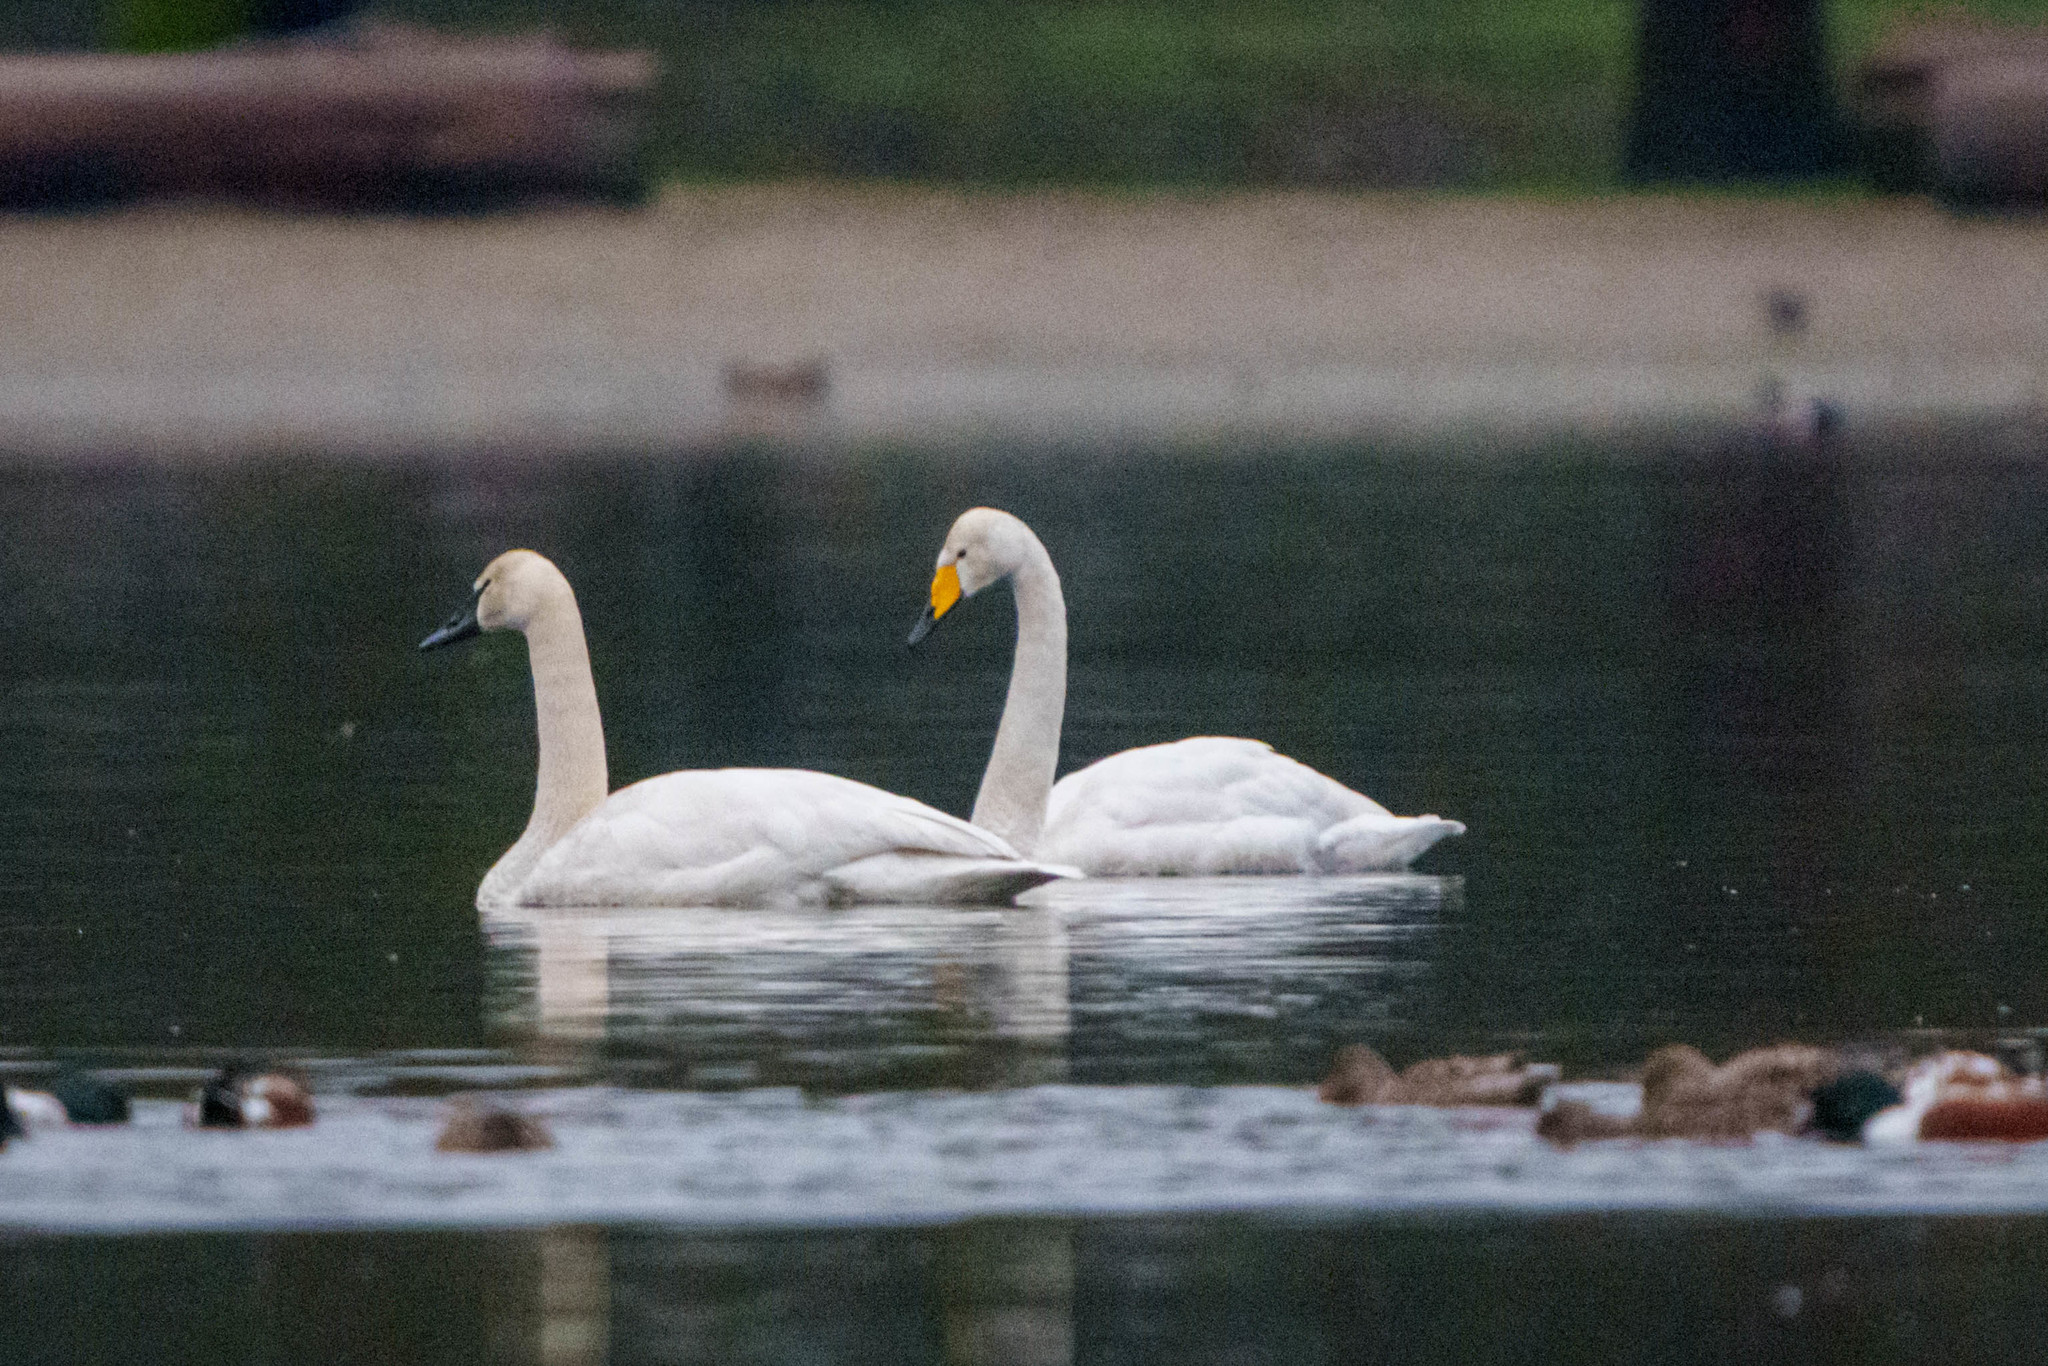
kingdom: Animalia
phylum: Chordata
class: Aves
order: Anseriformes
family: Anatidae
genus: Cygnus
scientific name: Cygnus cygnus
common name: Whooper swan
